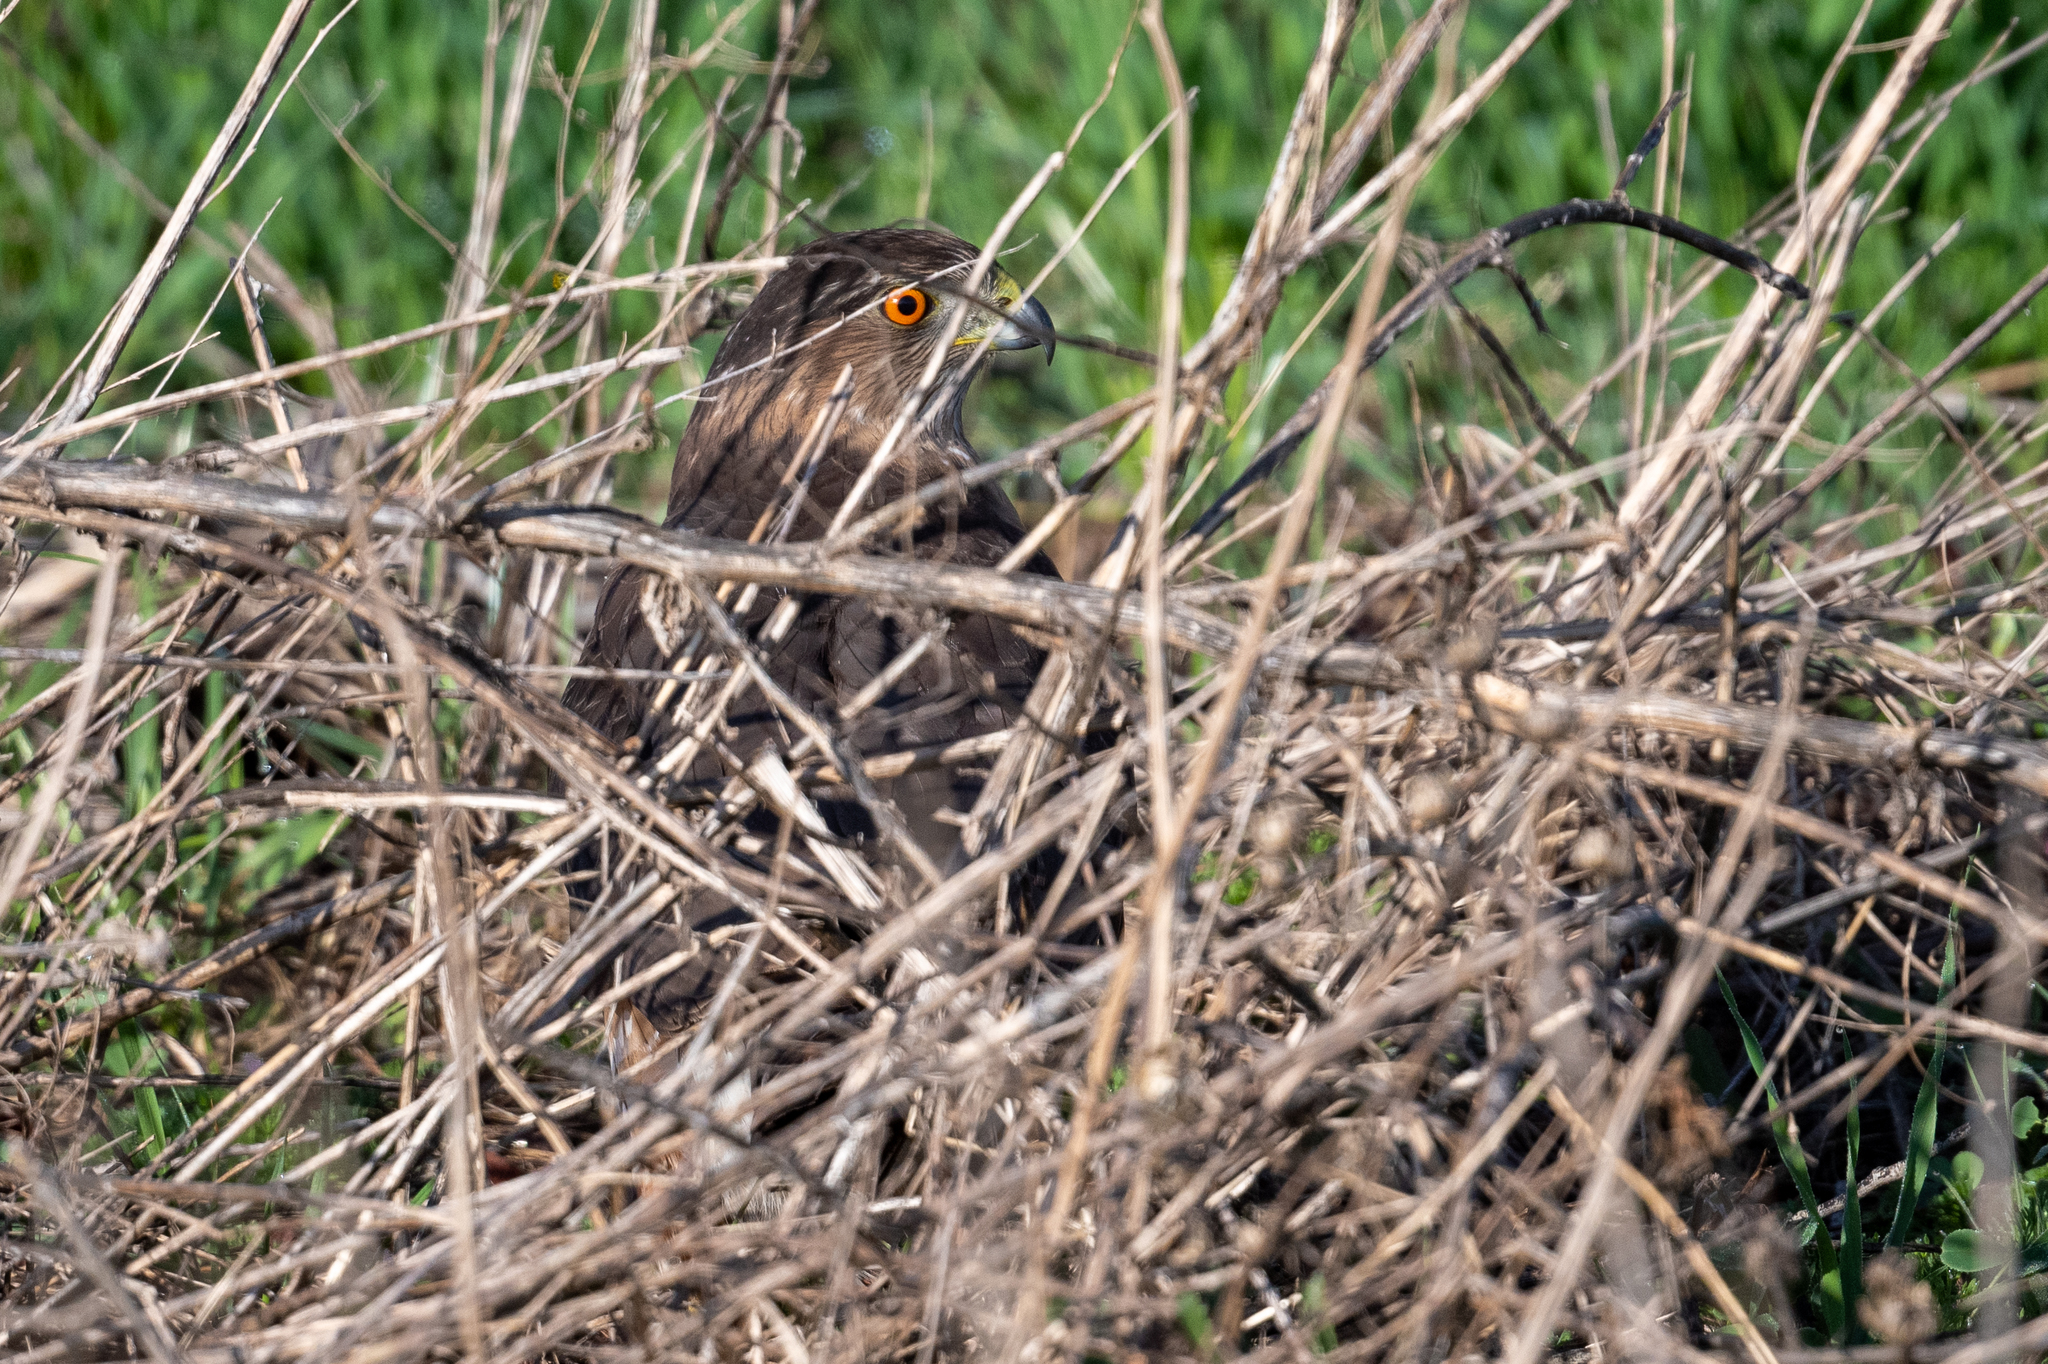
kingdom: Animalia
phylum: Chordata
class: Aves
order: Accipitriformes
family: Accipitridae
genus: Accipiter
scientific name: Accipiter cooperii
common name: Cooper's hawk
